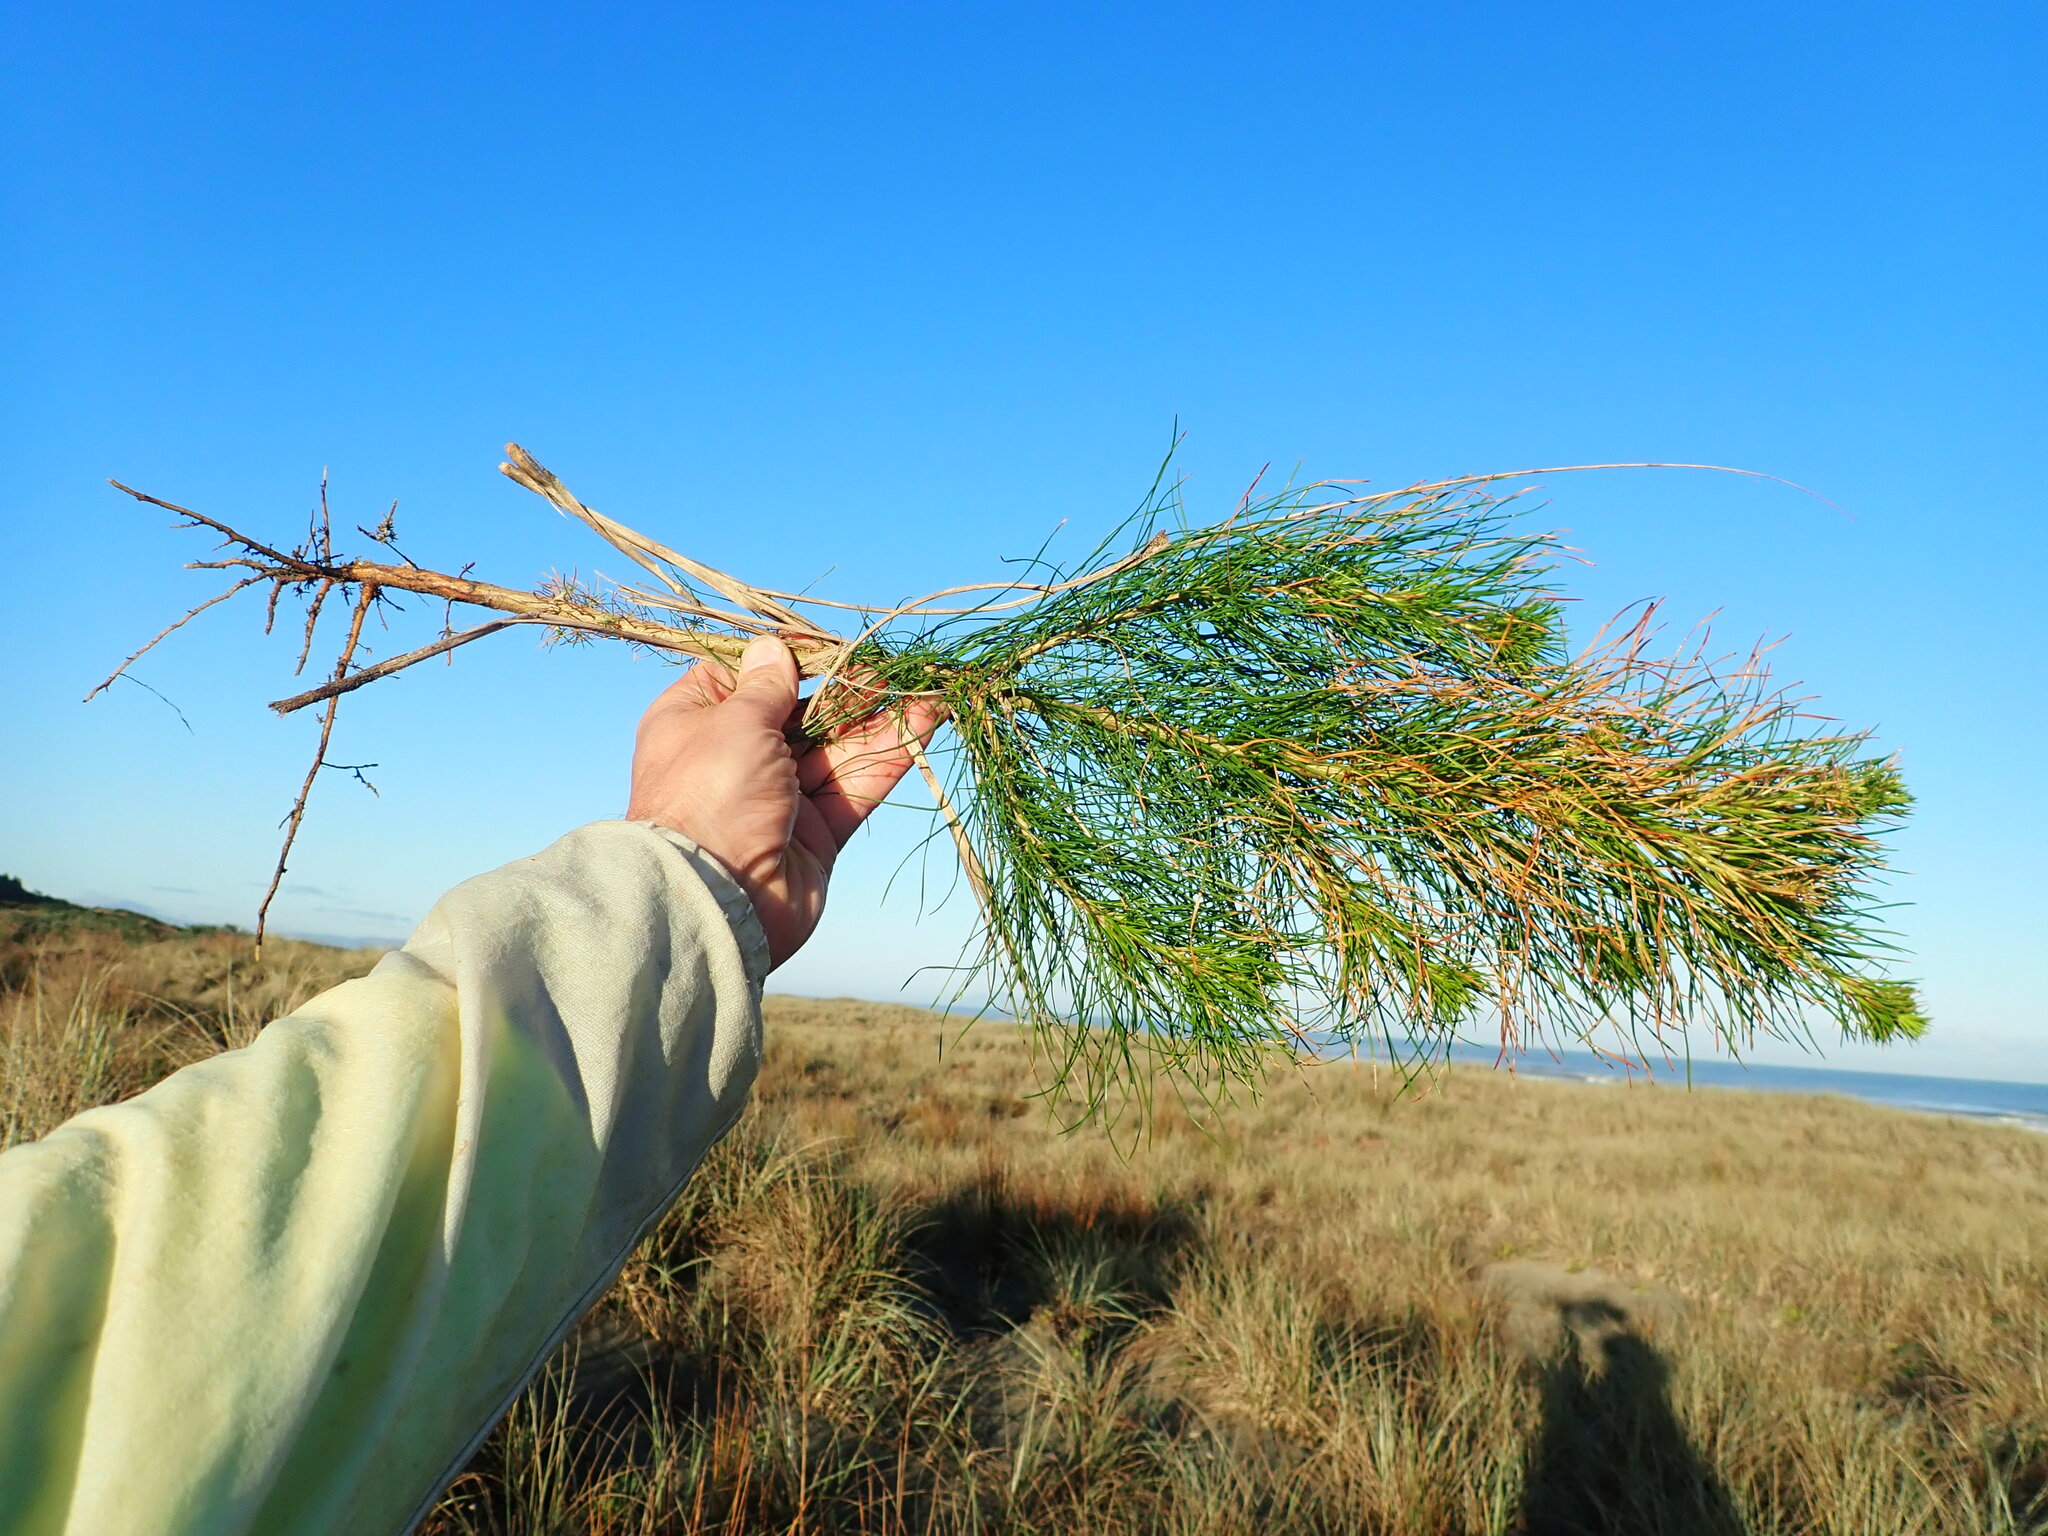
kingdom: Plantae
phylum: Tracheophyta
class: Pinopsida
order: Pinales
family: Pinaceae
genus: Pinus
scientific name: Pinus radiata
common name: Monterey pine
